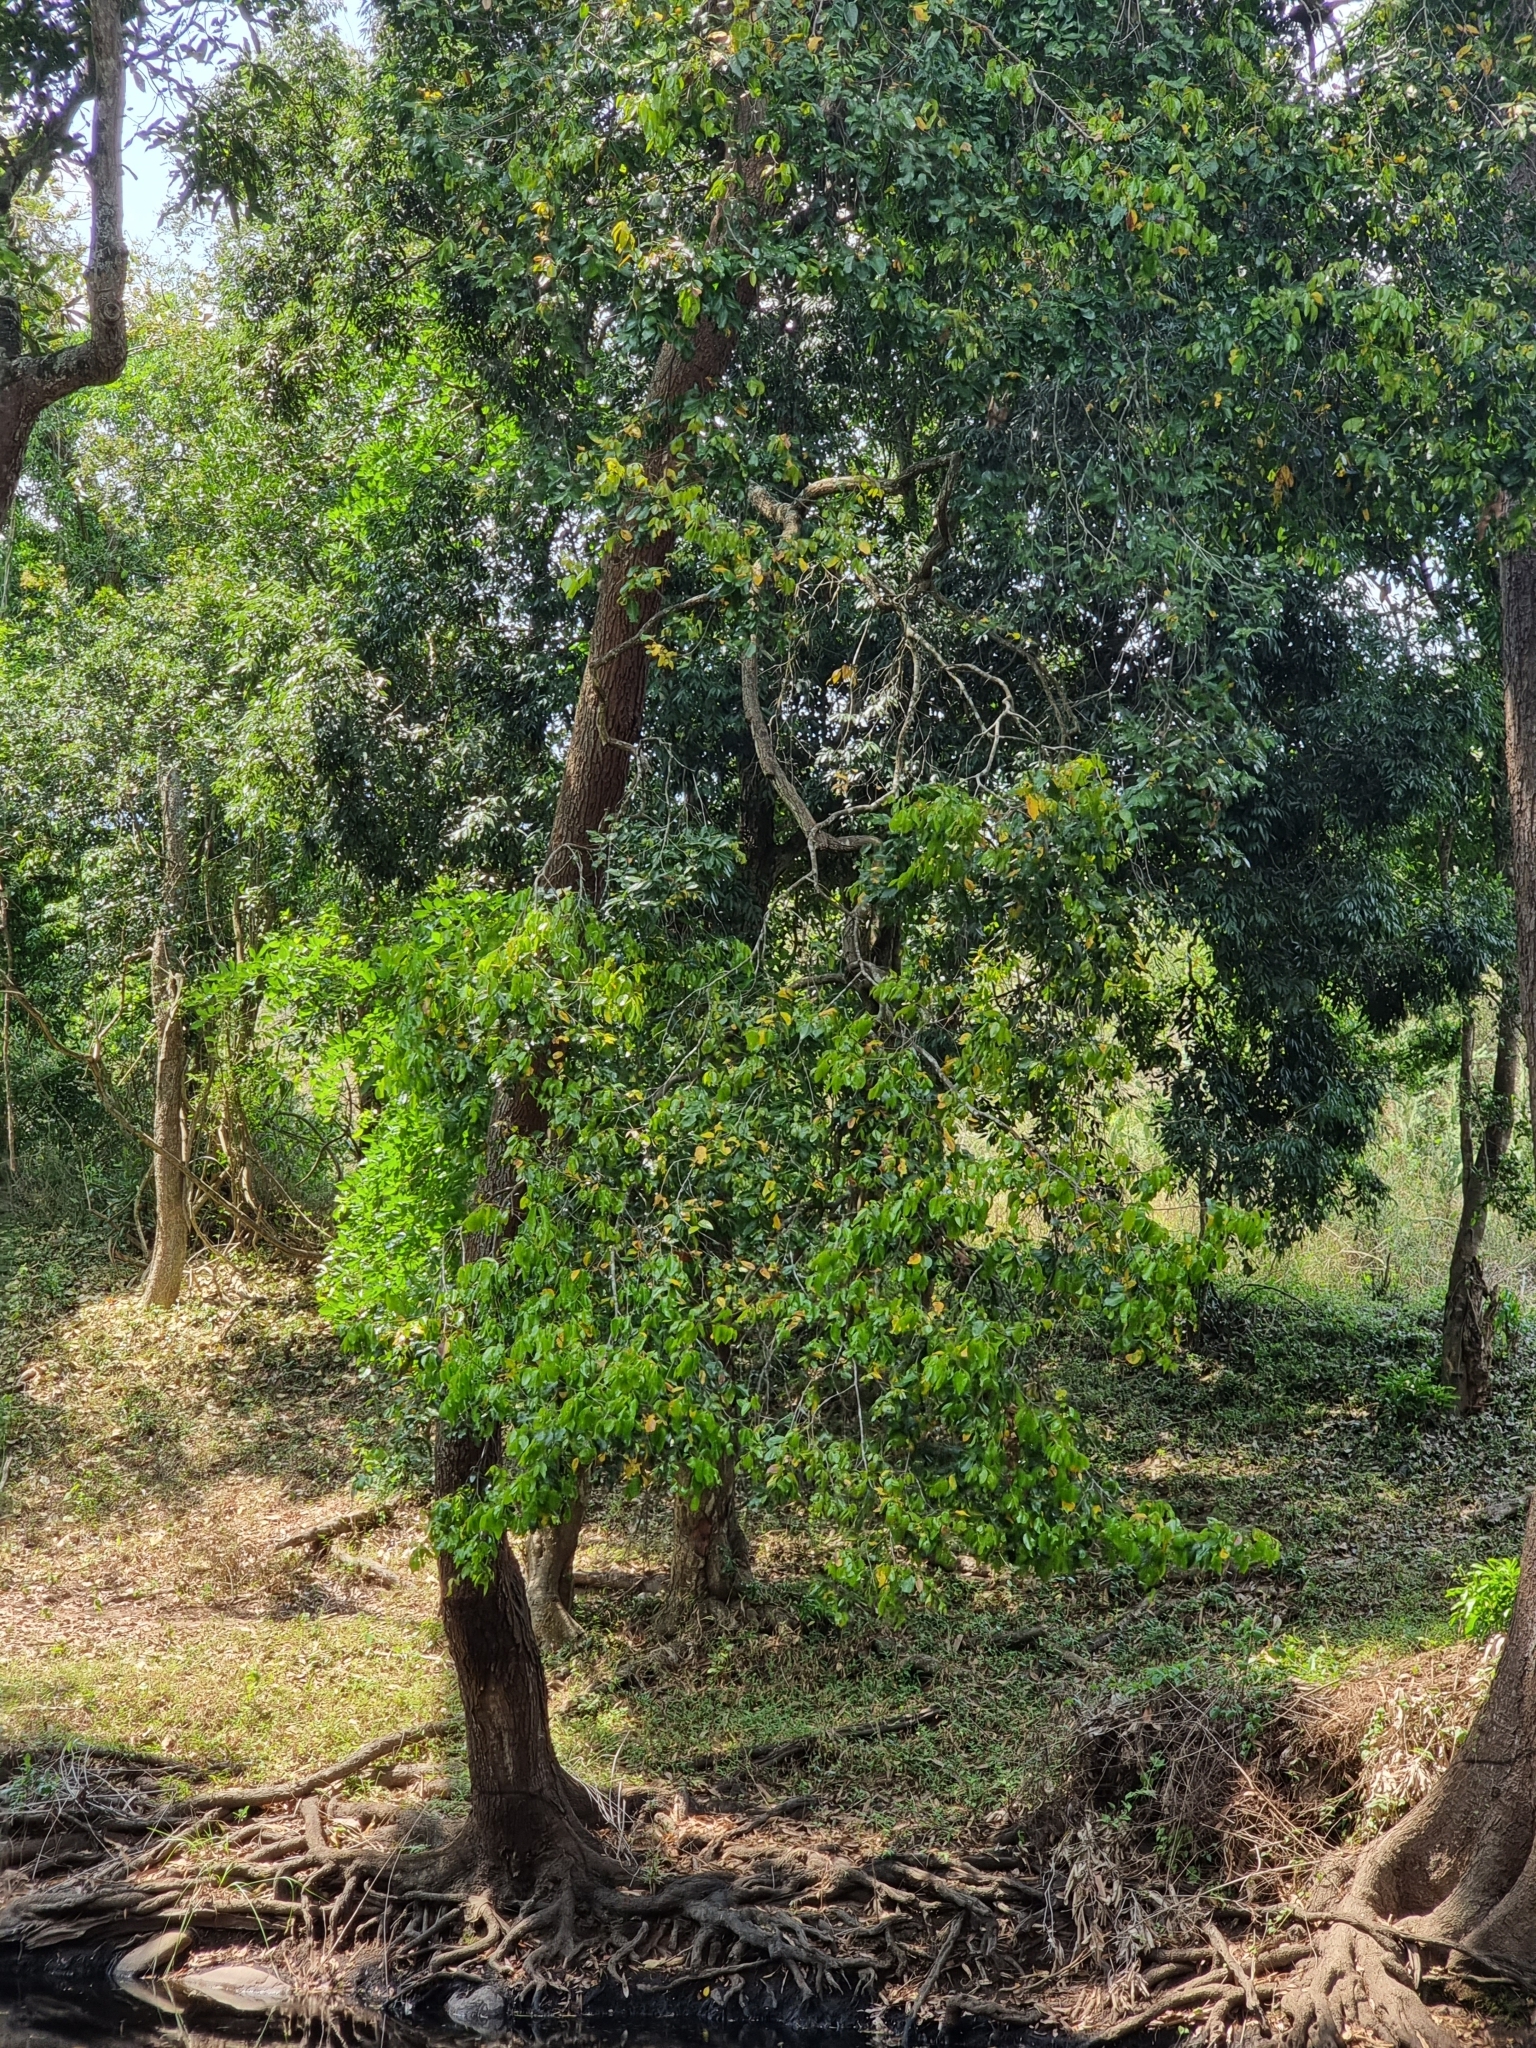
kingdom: Plantae
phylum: Tracheophyta
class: Magnoliopsida
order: Malpighiales
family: Malpighiaceae
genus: Hiptage
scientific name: Hiptage benghalensis
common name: Hiptage
